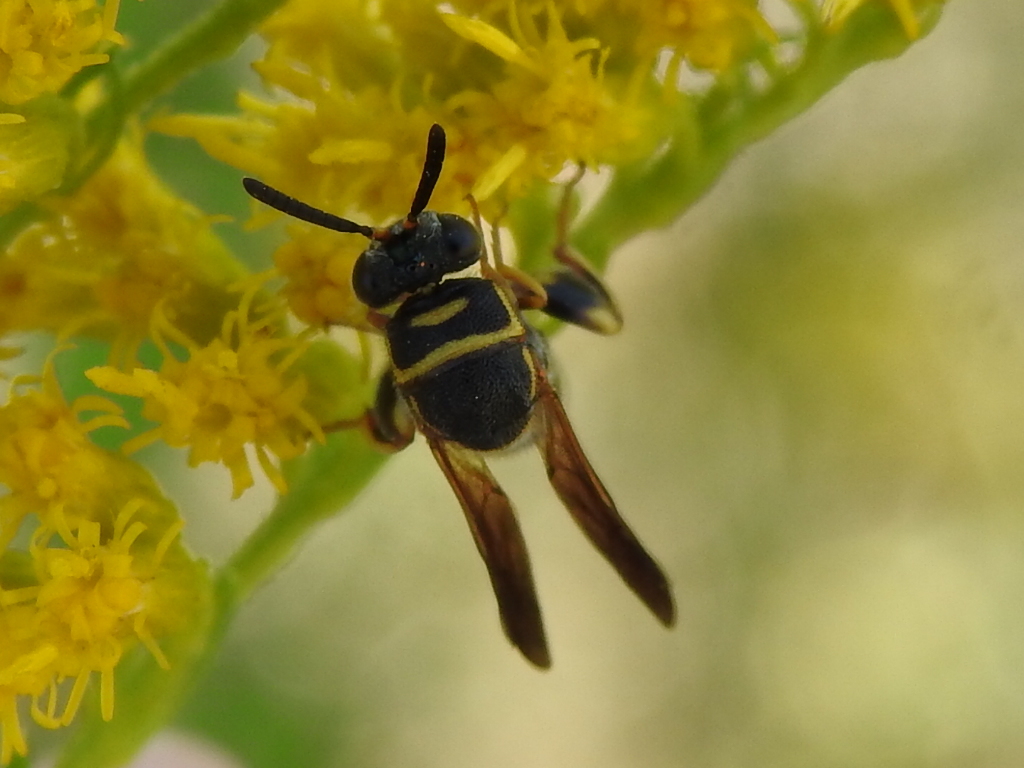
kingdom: Animalia
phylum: Arthropoda
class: Insecta
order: Hymenoptera
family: Leucospidae
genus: Leucospis
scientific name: Leucospis affinis
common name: Wasp
